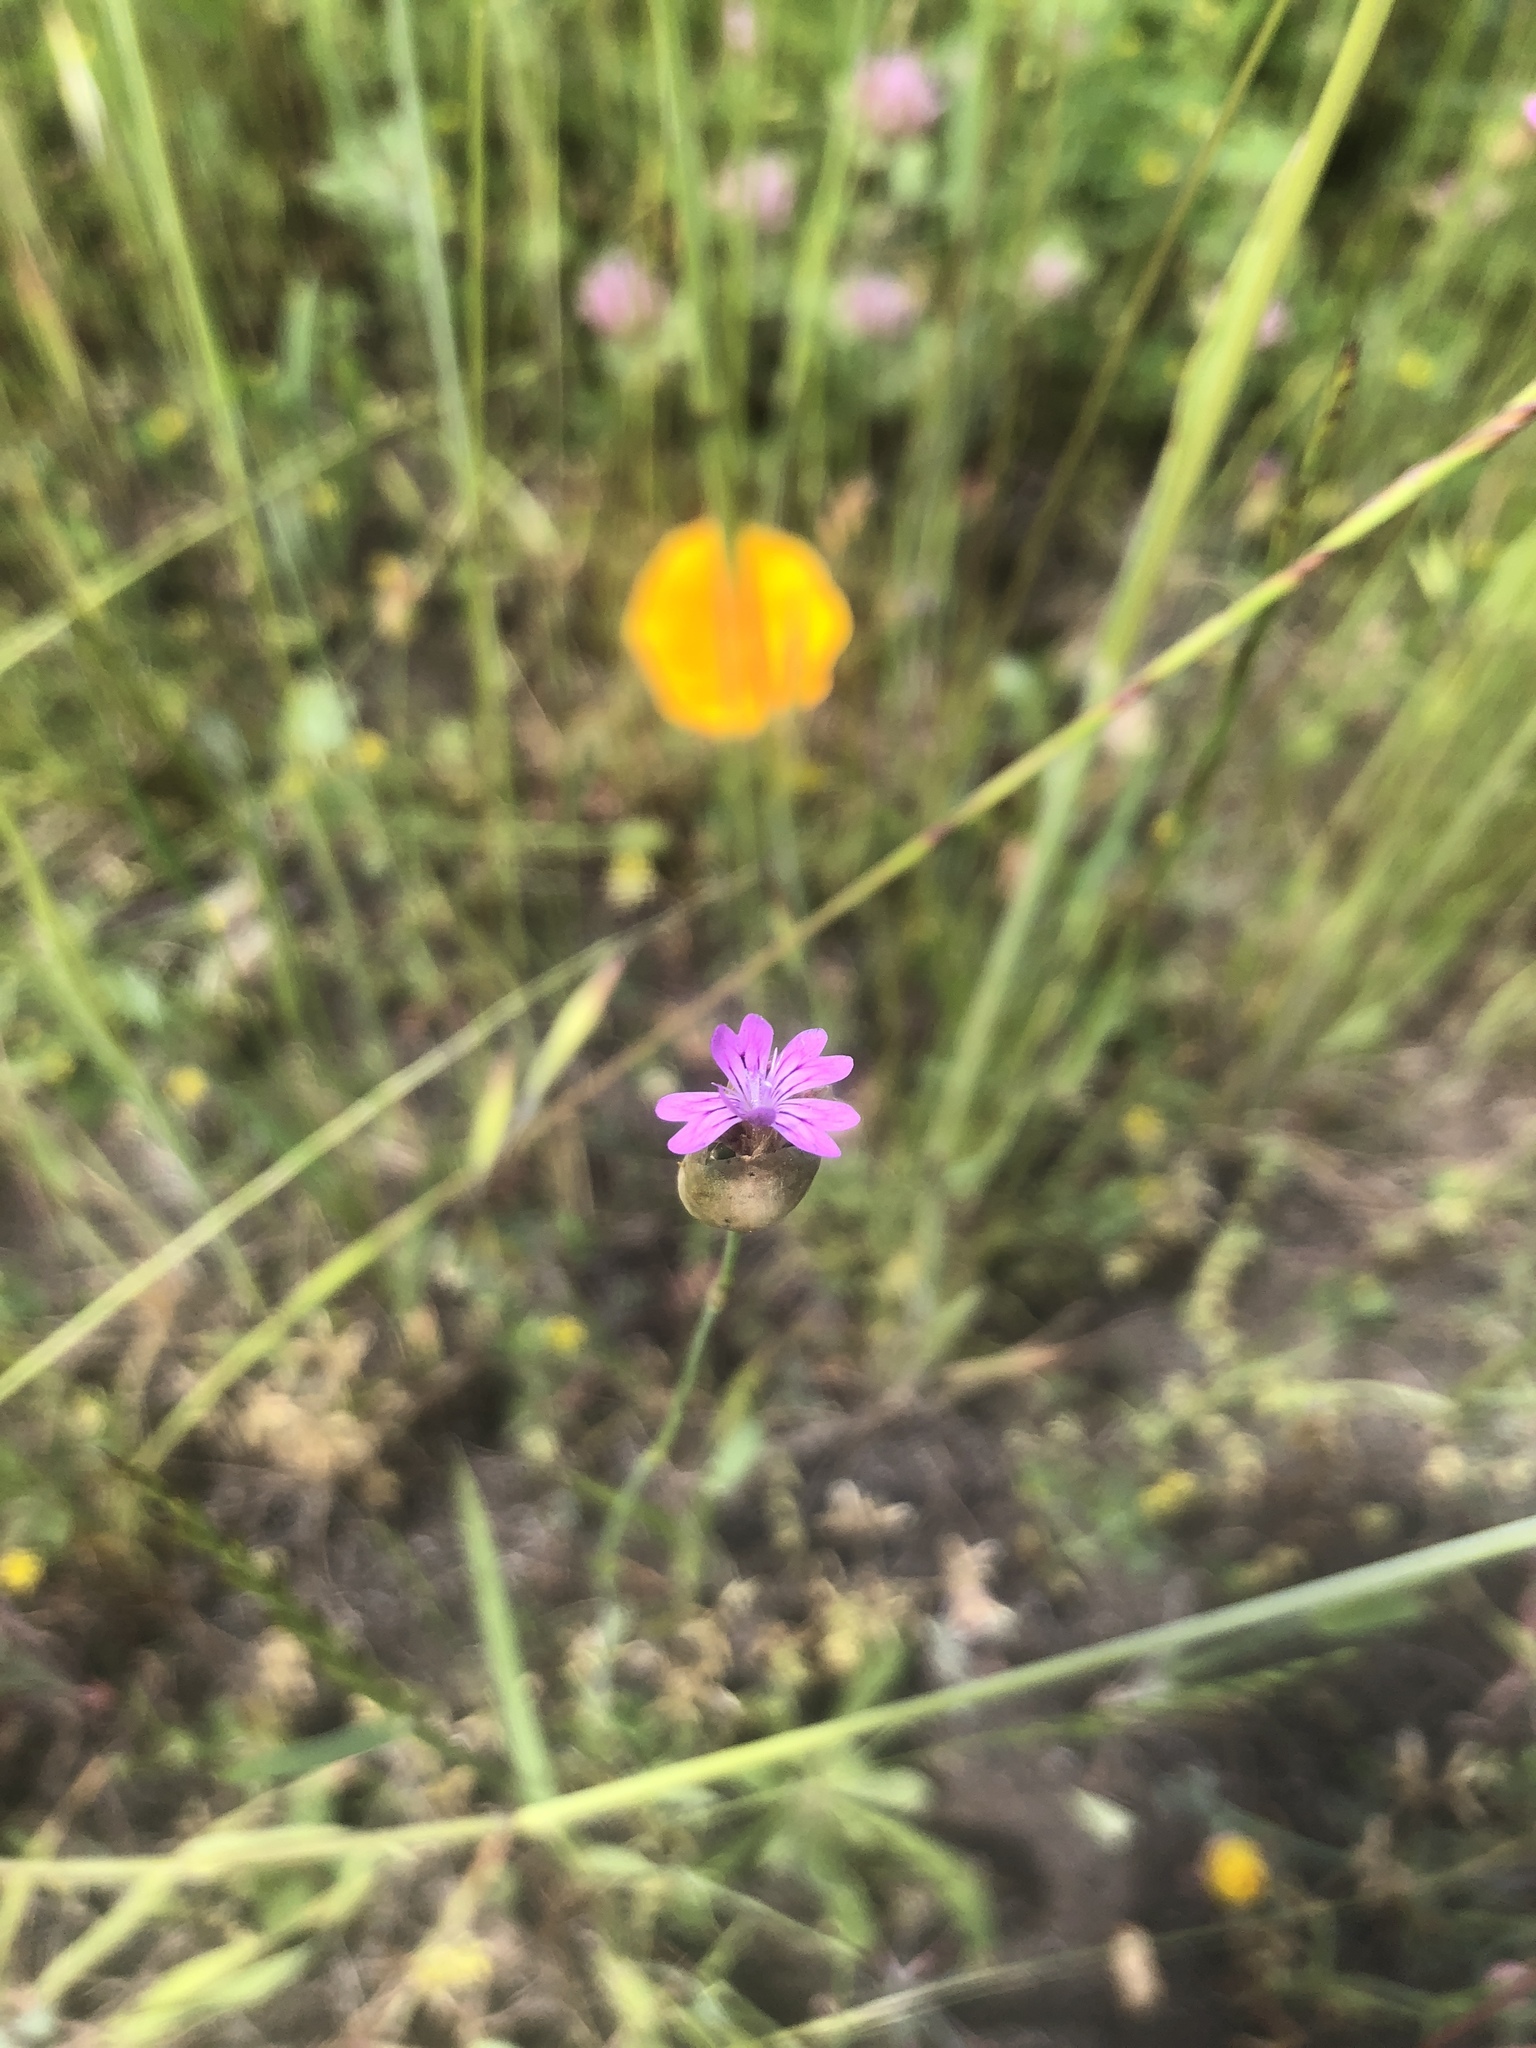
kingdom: Plantae
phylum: Tracheophyta
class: Magnoliopsida
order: Caryophyllales
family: Caryophyllaceae
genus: Petrorhagia
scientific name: Petrorhagia dubia
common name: Hairypink
